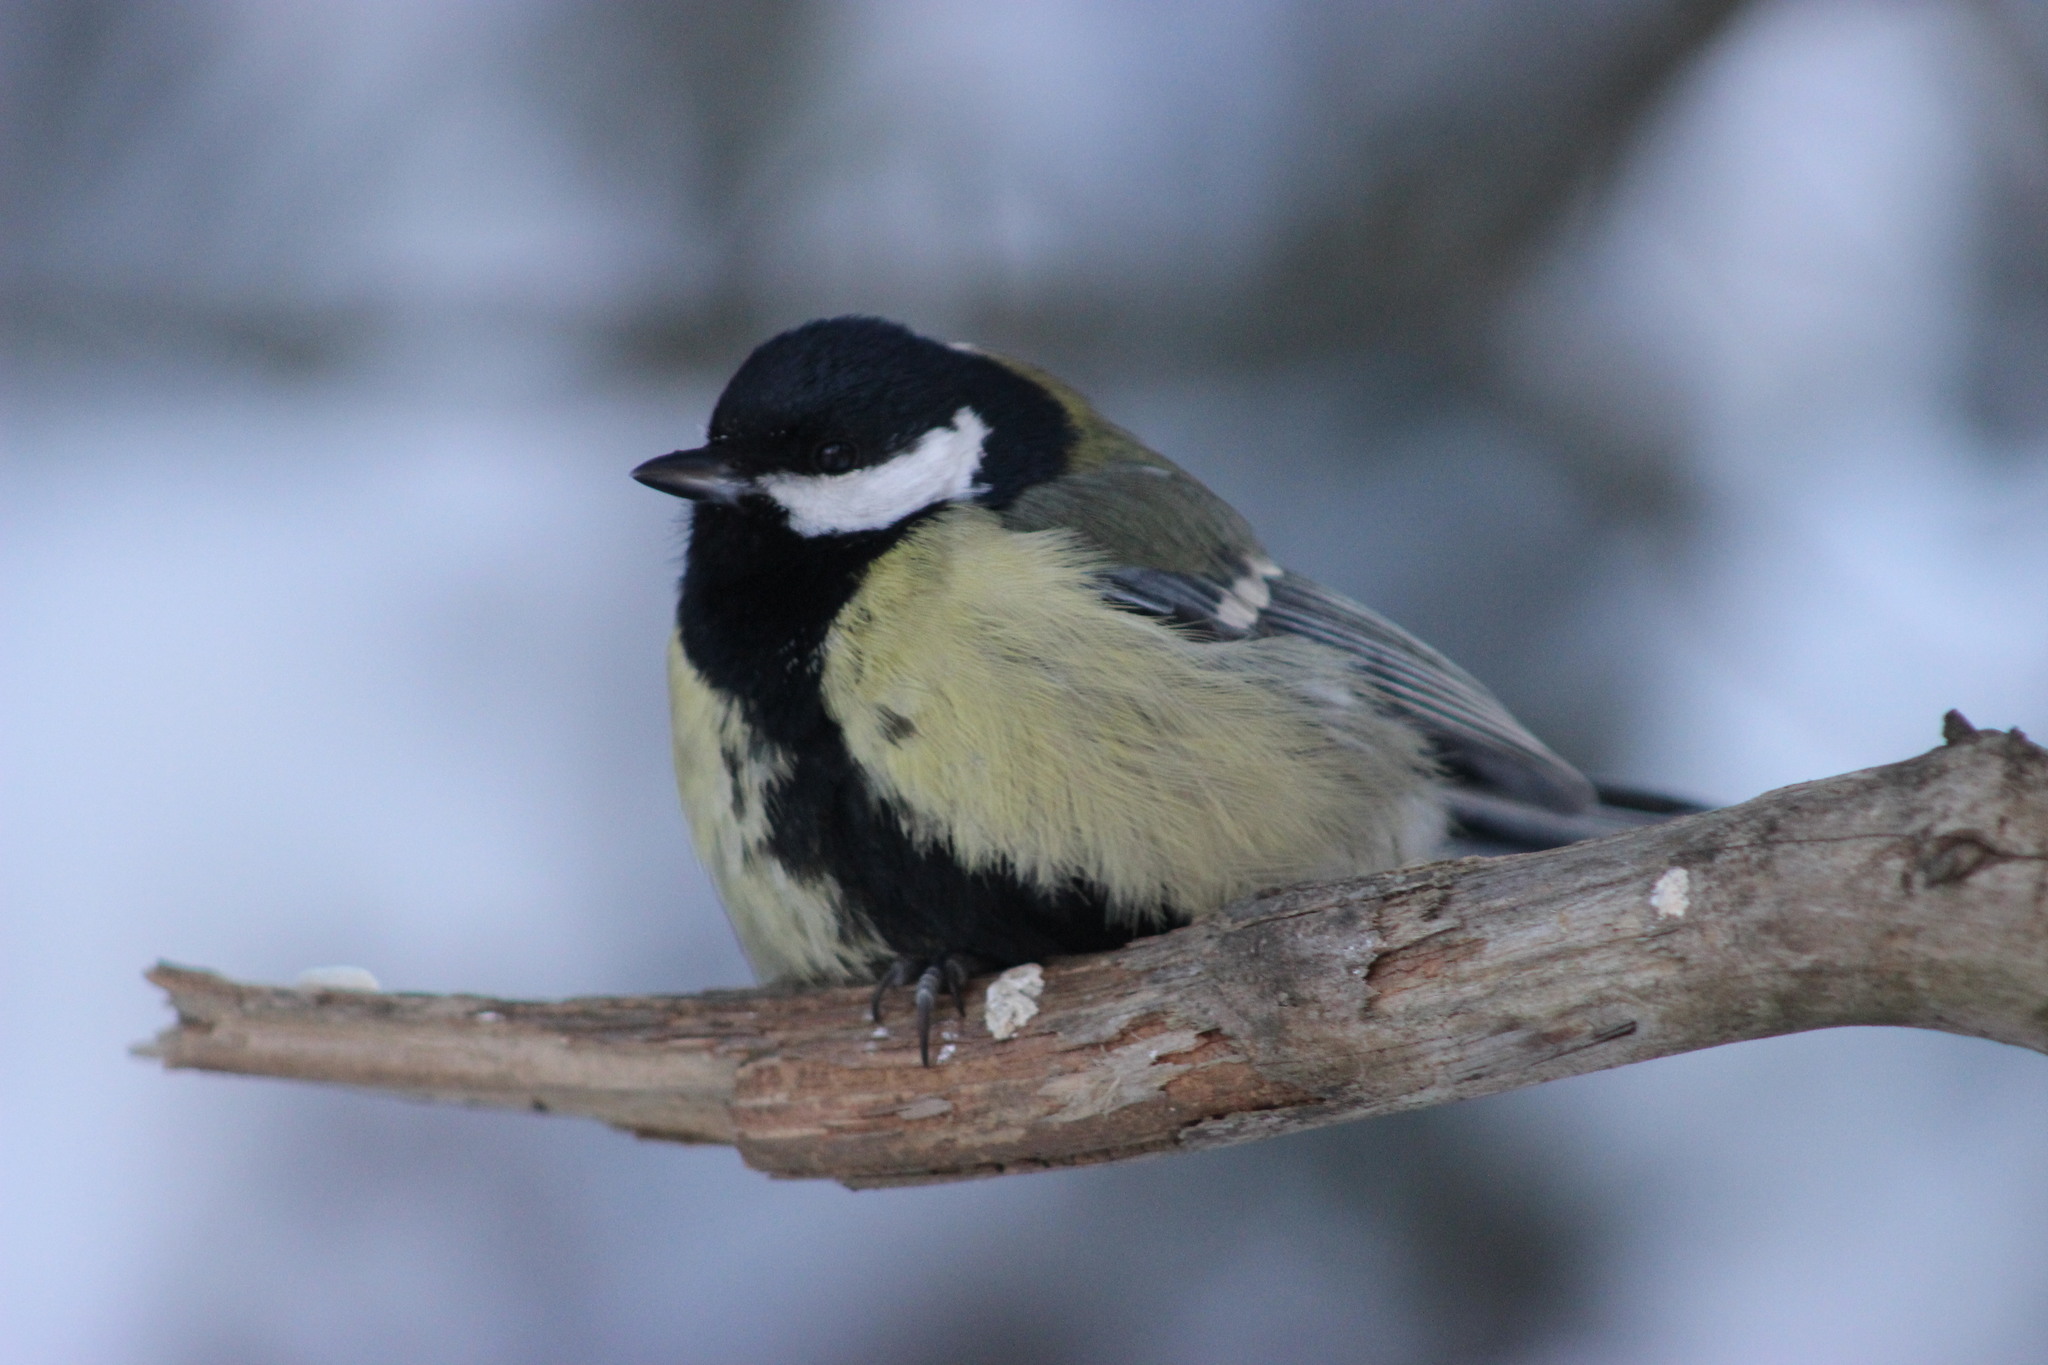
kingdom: Animalia
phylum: Chordata
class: Aves
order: Passeriformes
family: Paridae
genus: Parus
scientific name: Parus major
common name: Great tit
